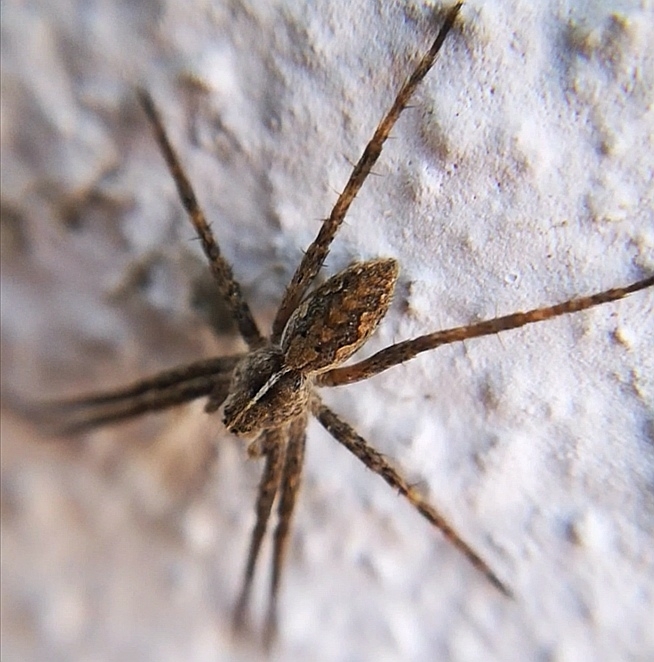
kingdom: Animalia
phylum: Arthropoda
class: Arachnida
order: Araneae
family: Pisauridae
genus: Pisaura
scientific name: Pisaura mirabilis
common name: Tent spider
